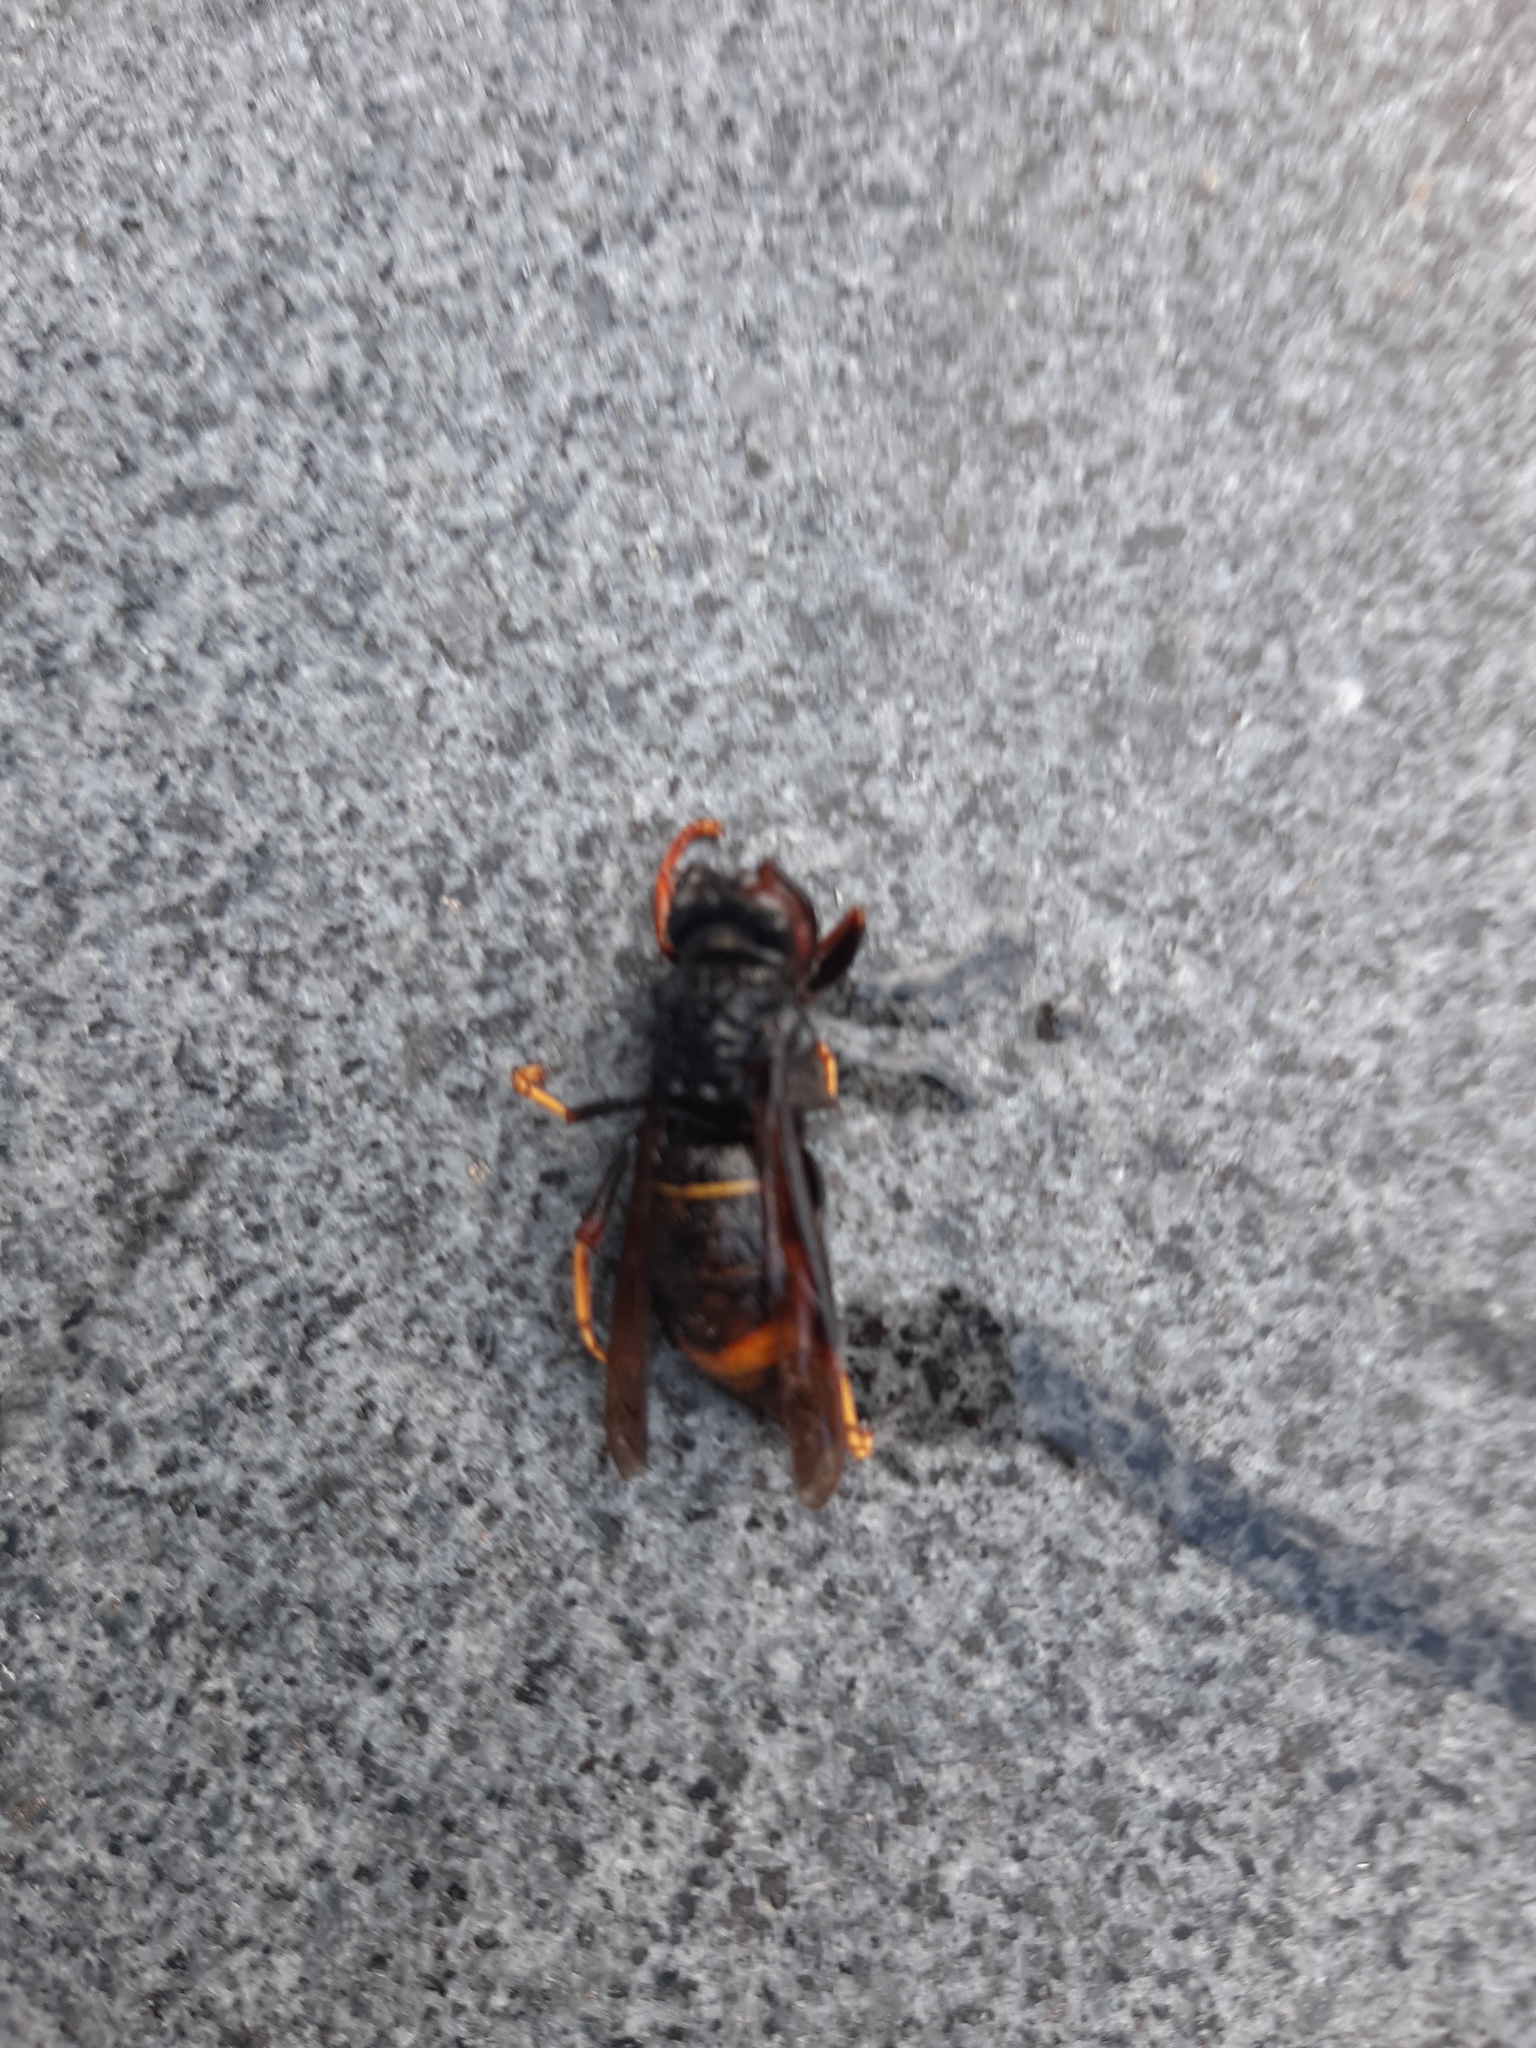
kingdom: Animalia
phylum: Arthropoda
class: Insecta
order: Hymenoptera
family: Vespidae
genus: Vespa
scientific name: Vespa velutina
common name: Asian hornet
